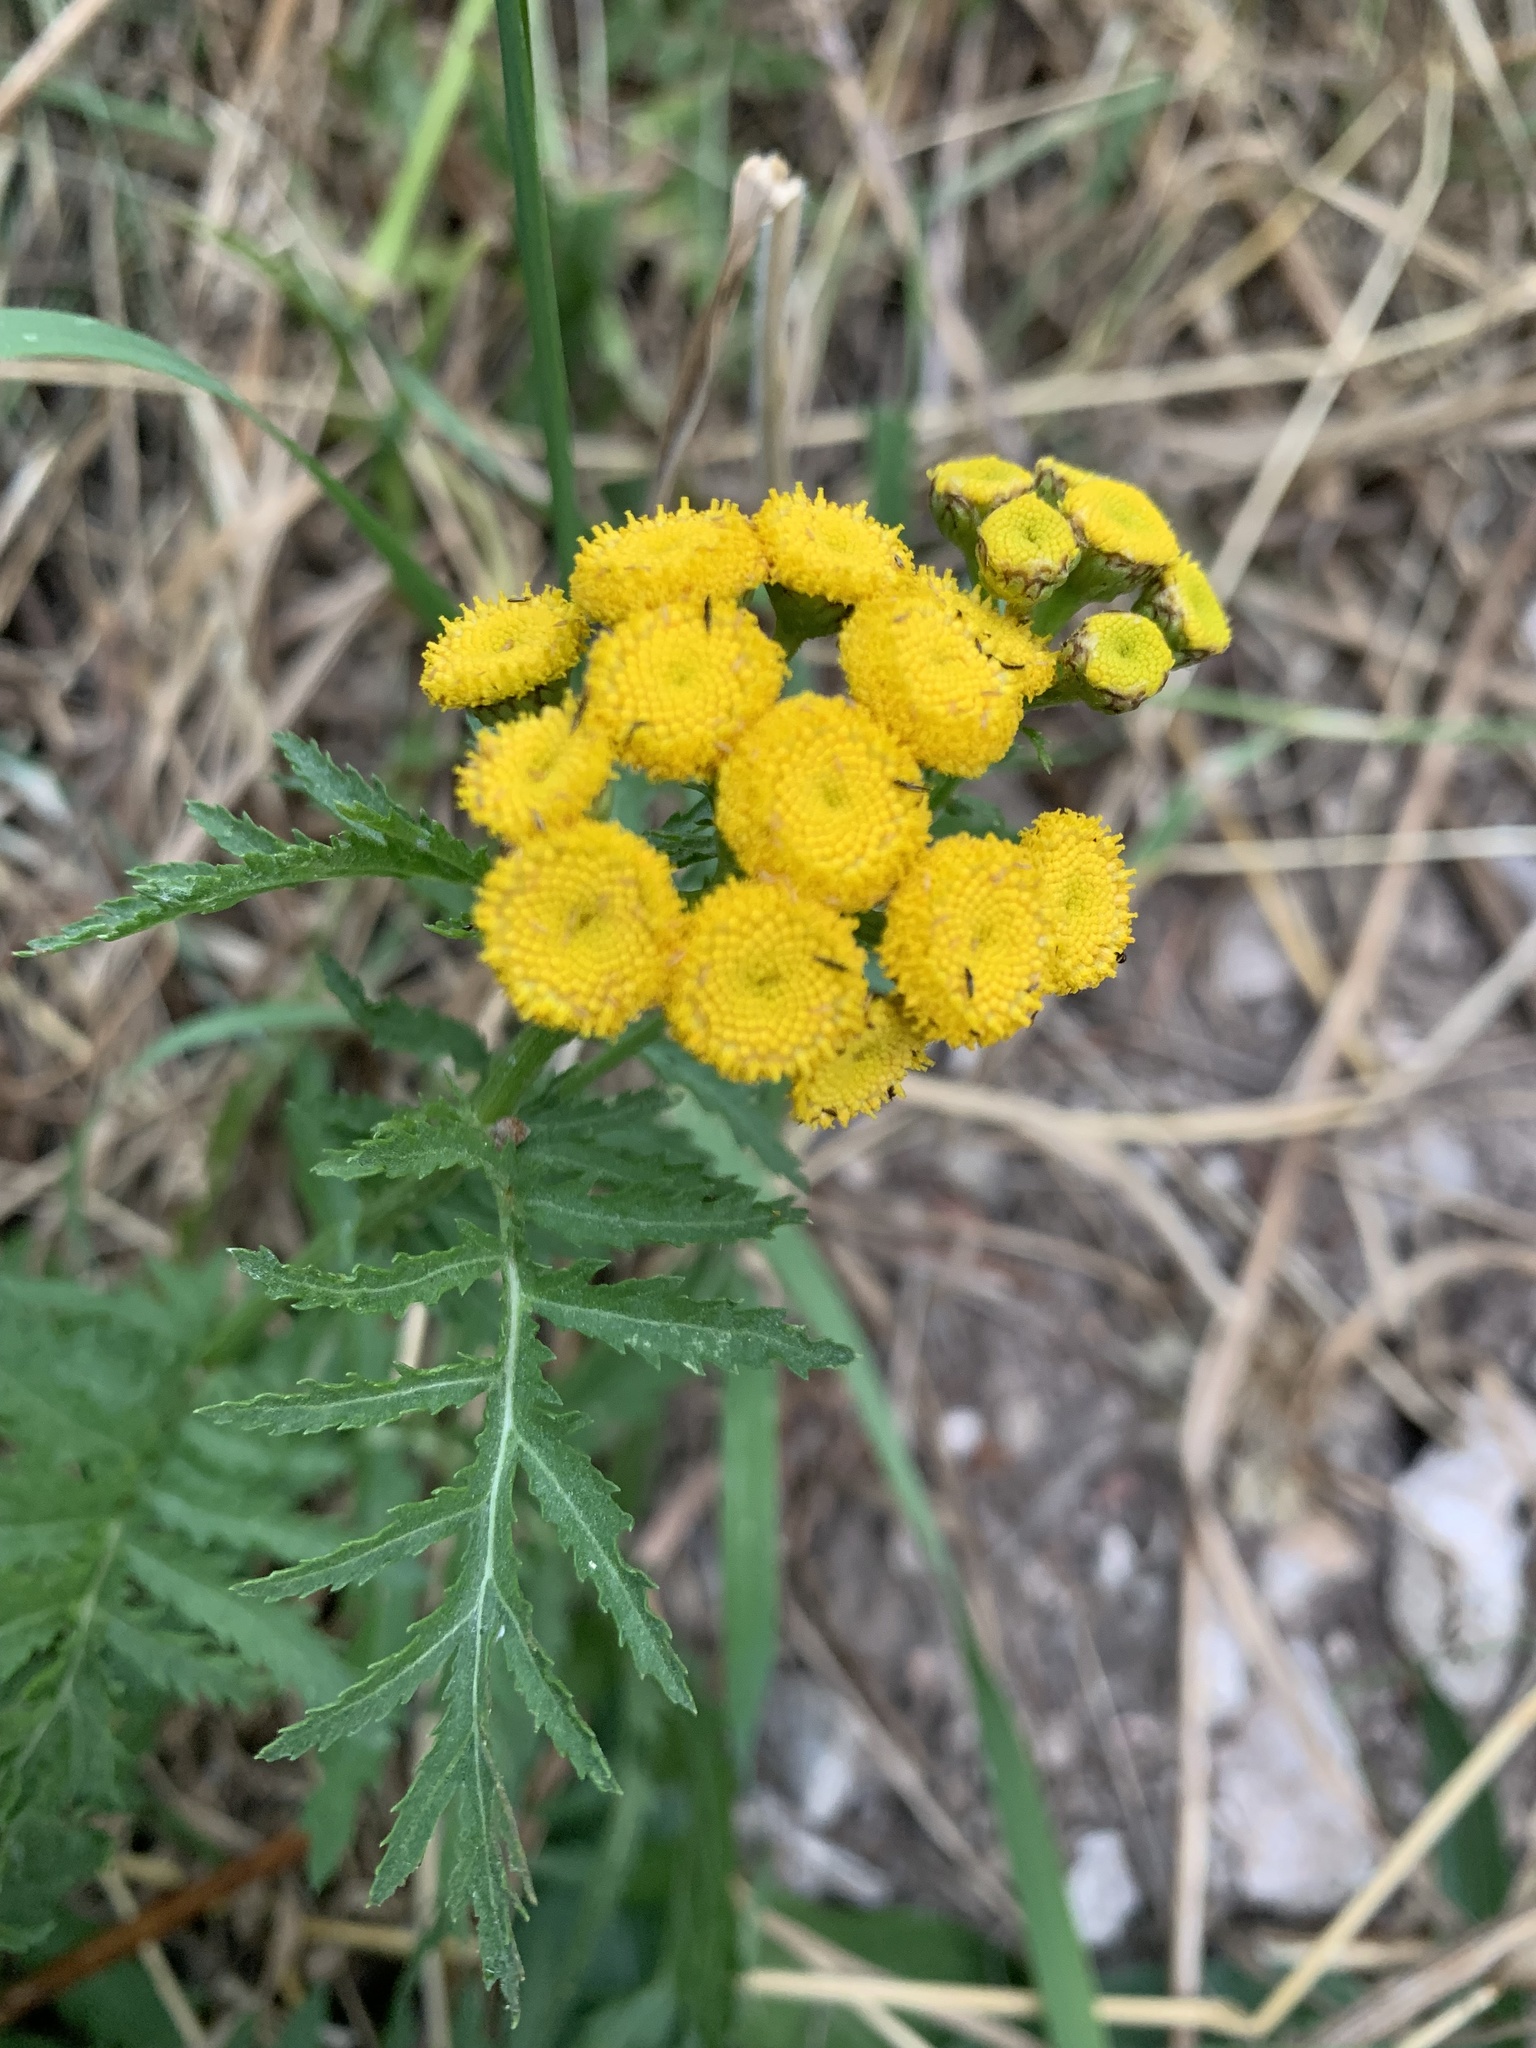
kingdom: Plantae
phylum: Tracheophyta
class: Magnoliopsida
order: Asterales
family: Asteraceae
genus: Tanacetum
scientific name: Tanacetum vulgare
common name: Common tansy
